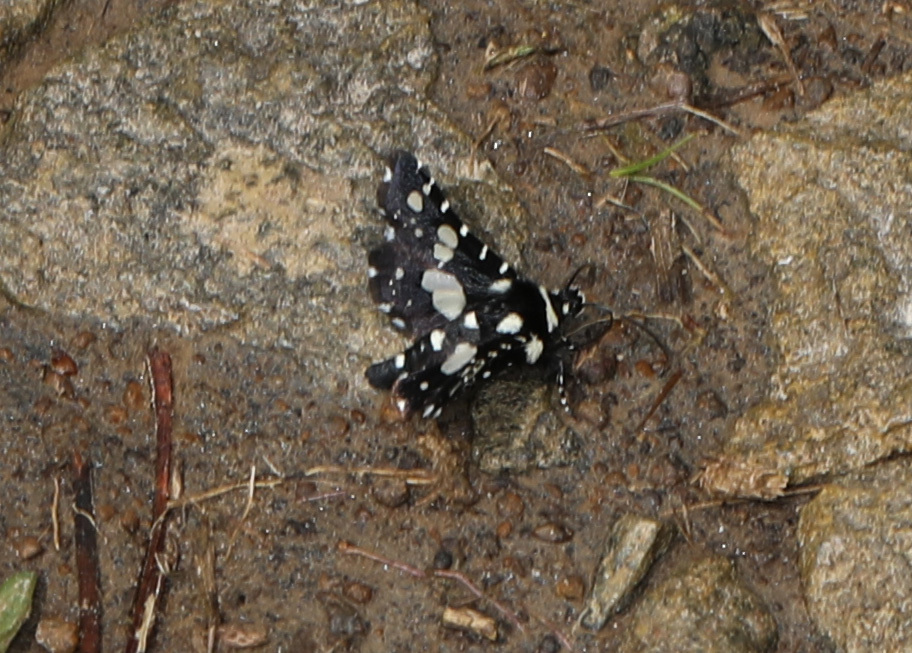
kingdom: Animalia
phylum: Arthropoda
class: Insecta
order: Lepidoptera
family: Thyrididae
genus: Pseudothyris
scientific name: Pseudothyris sepulchralis
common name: Mournful thyris moth
